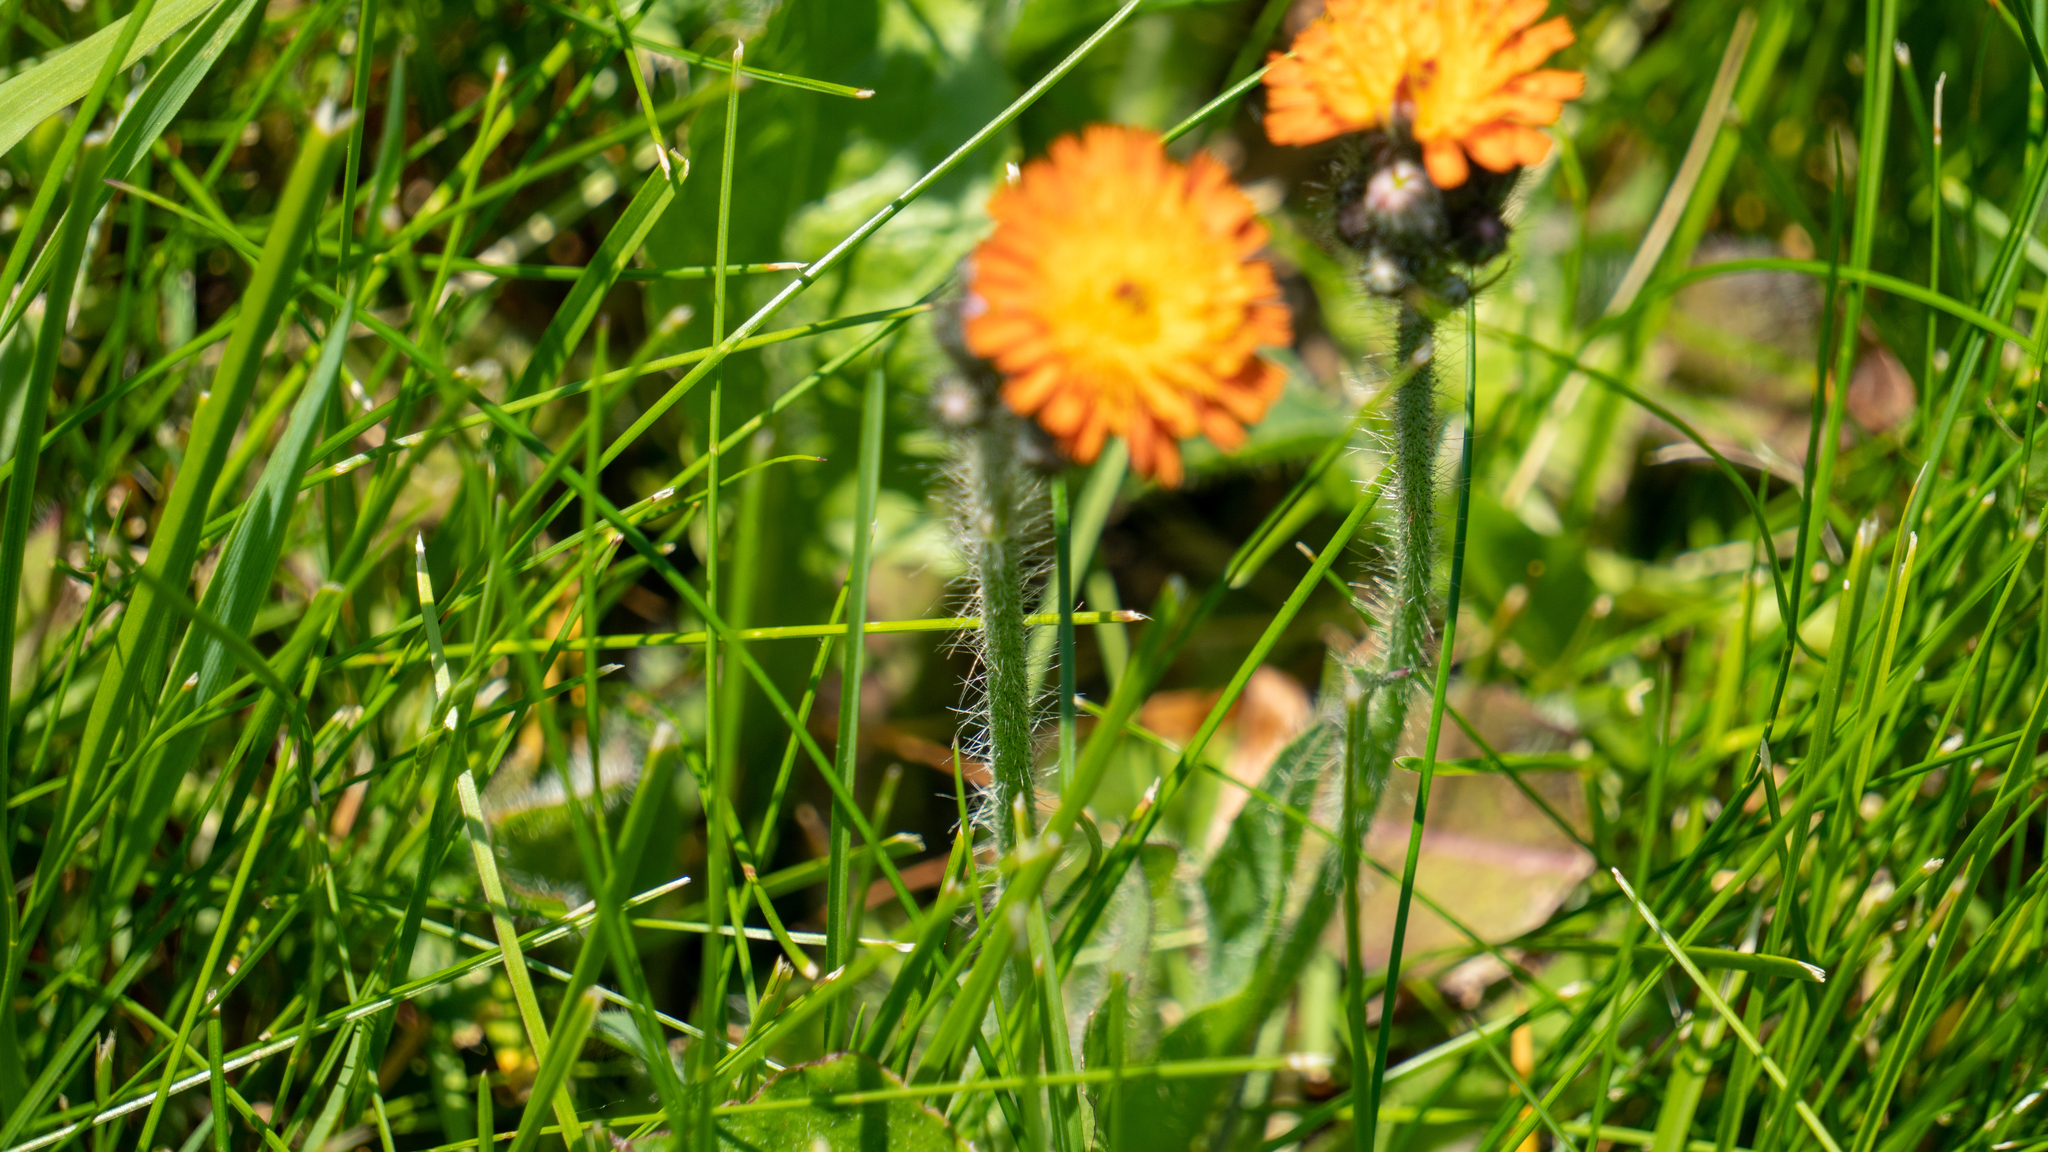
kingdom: Plantae
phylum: Tracheophyta
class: Magnoliopsida
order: Asterales
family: Asteraceae
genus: Pilosella
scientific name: Pilosella aurantiaca
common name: Fox-and-cubs
